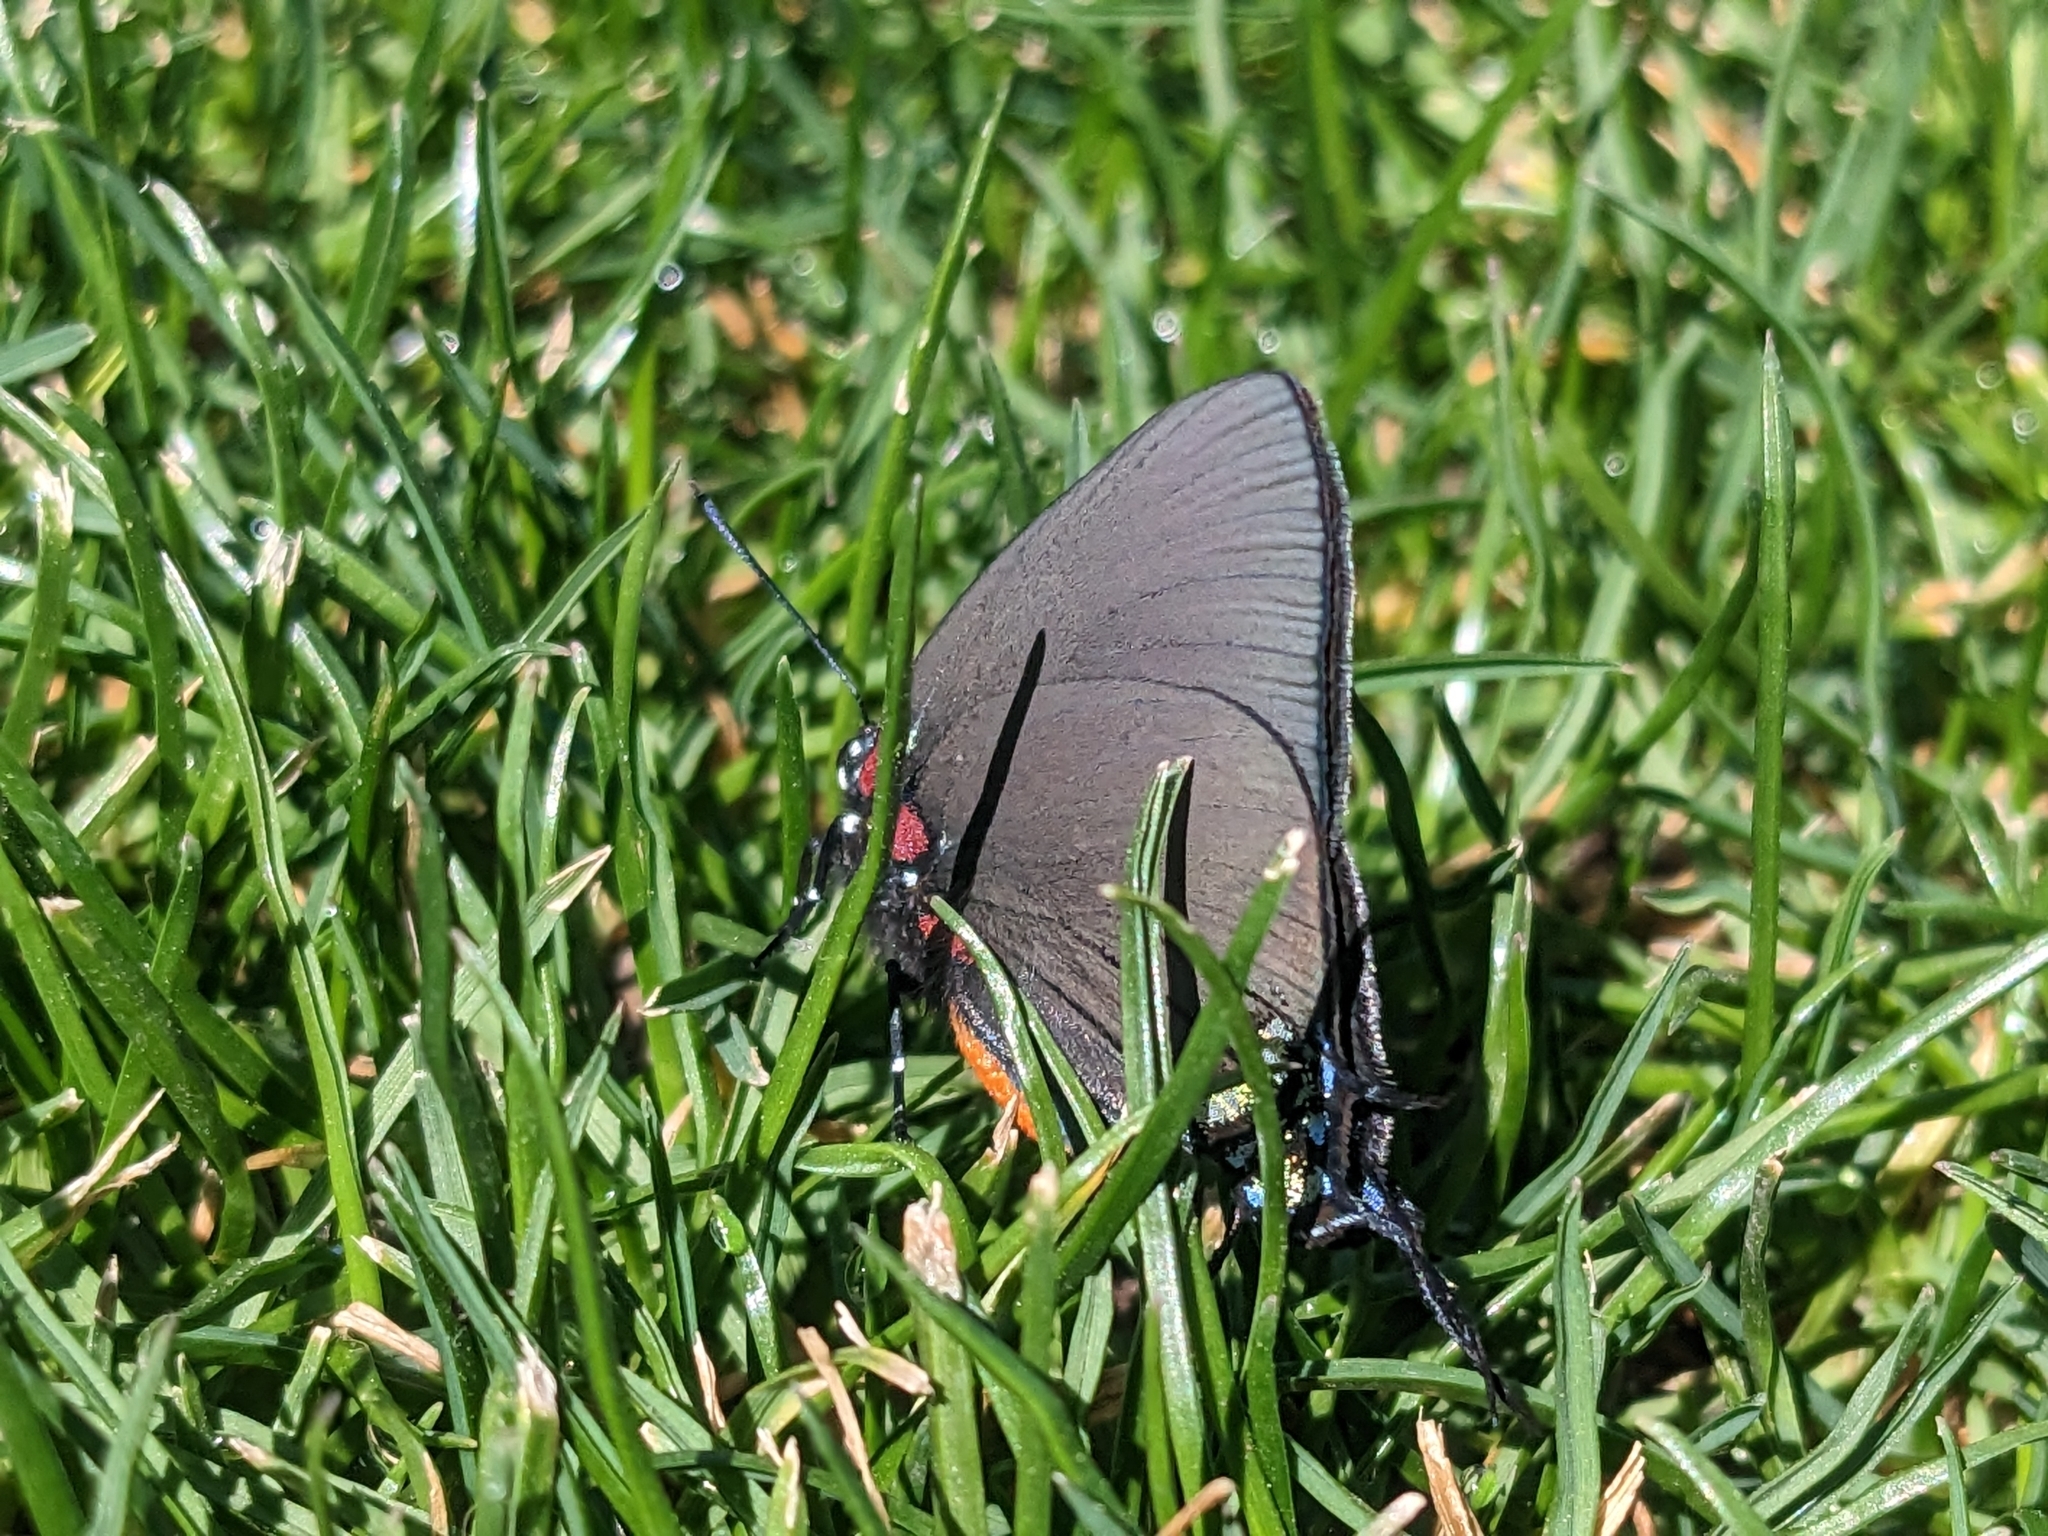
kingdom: Animalia
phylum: Arthropoda
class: Insecta
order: Lepidoptera
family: Lycaenidae
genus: Atlides
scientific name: Atlides halesus
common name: Great purple hairstreak
